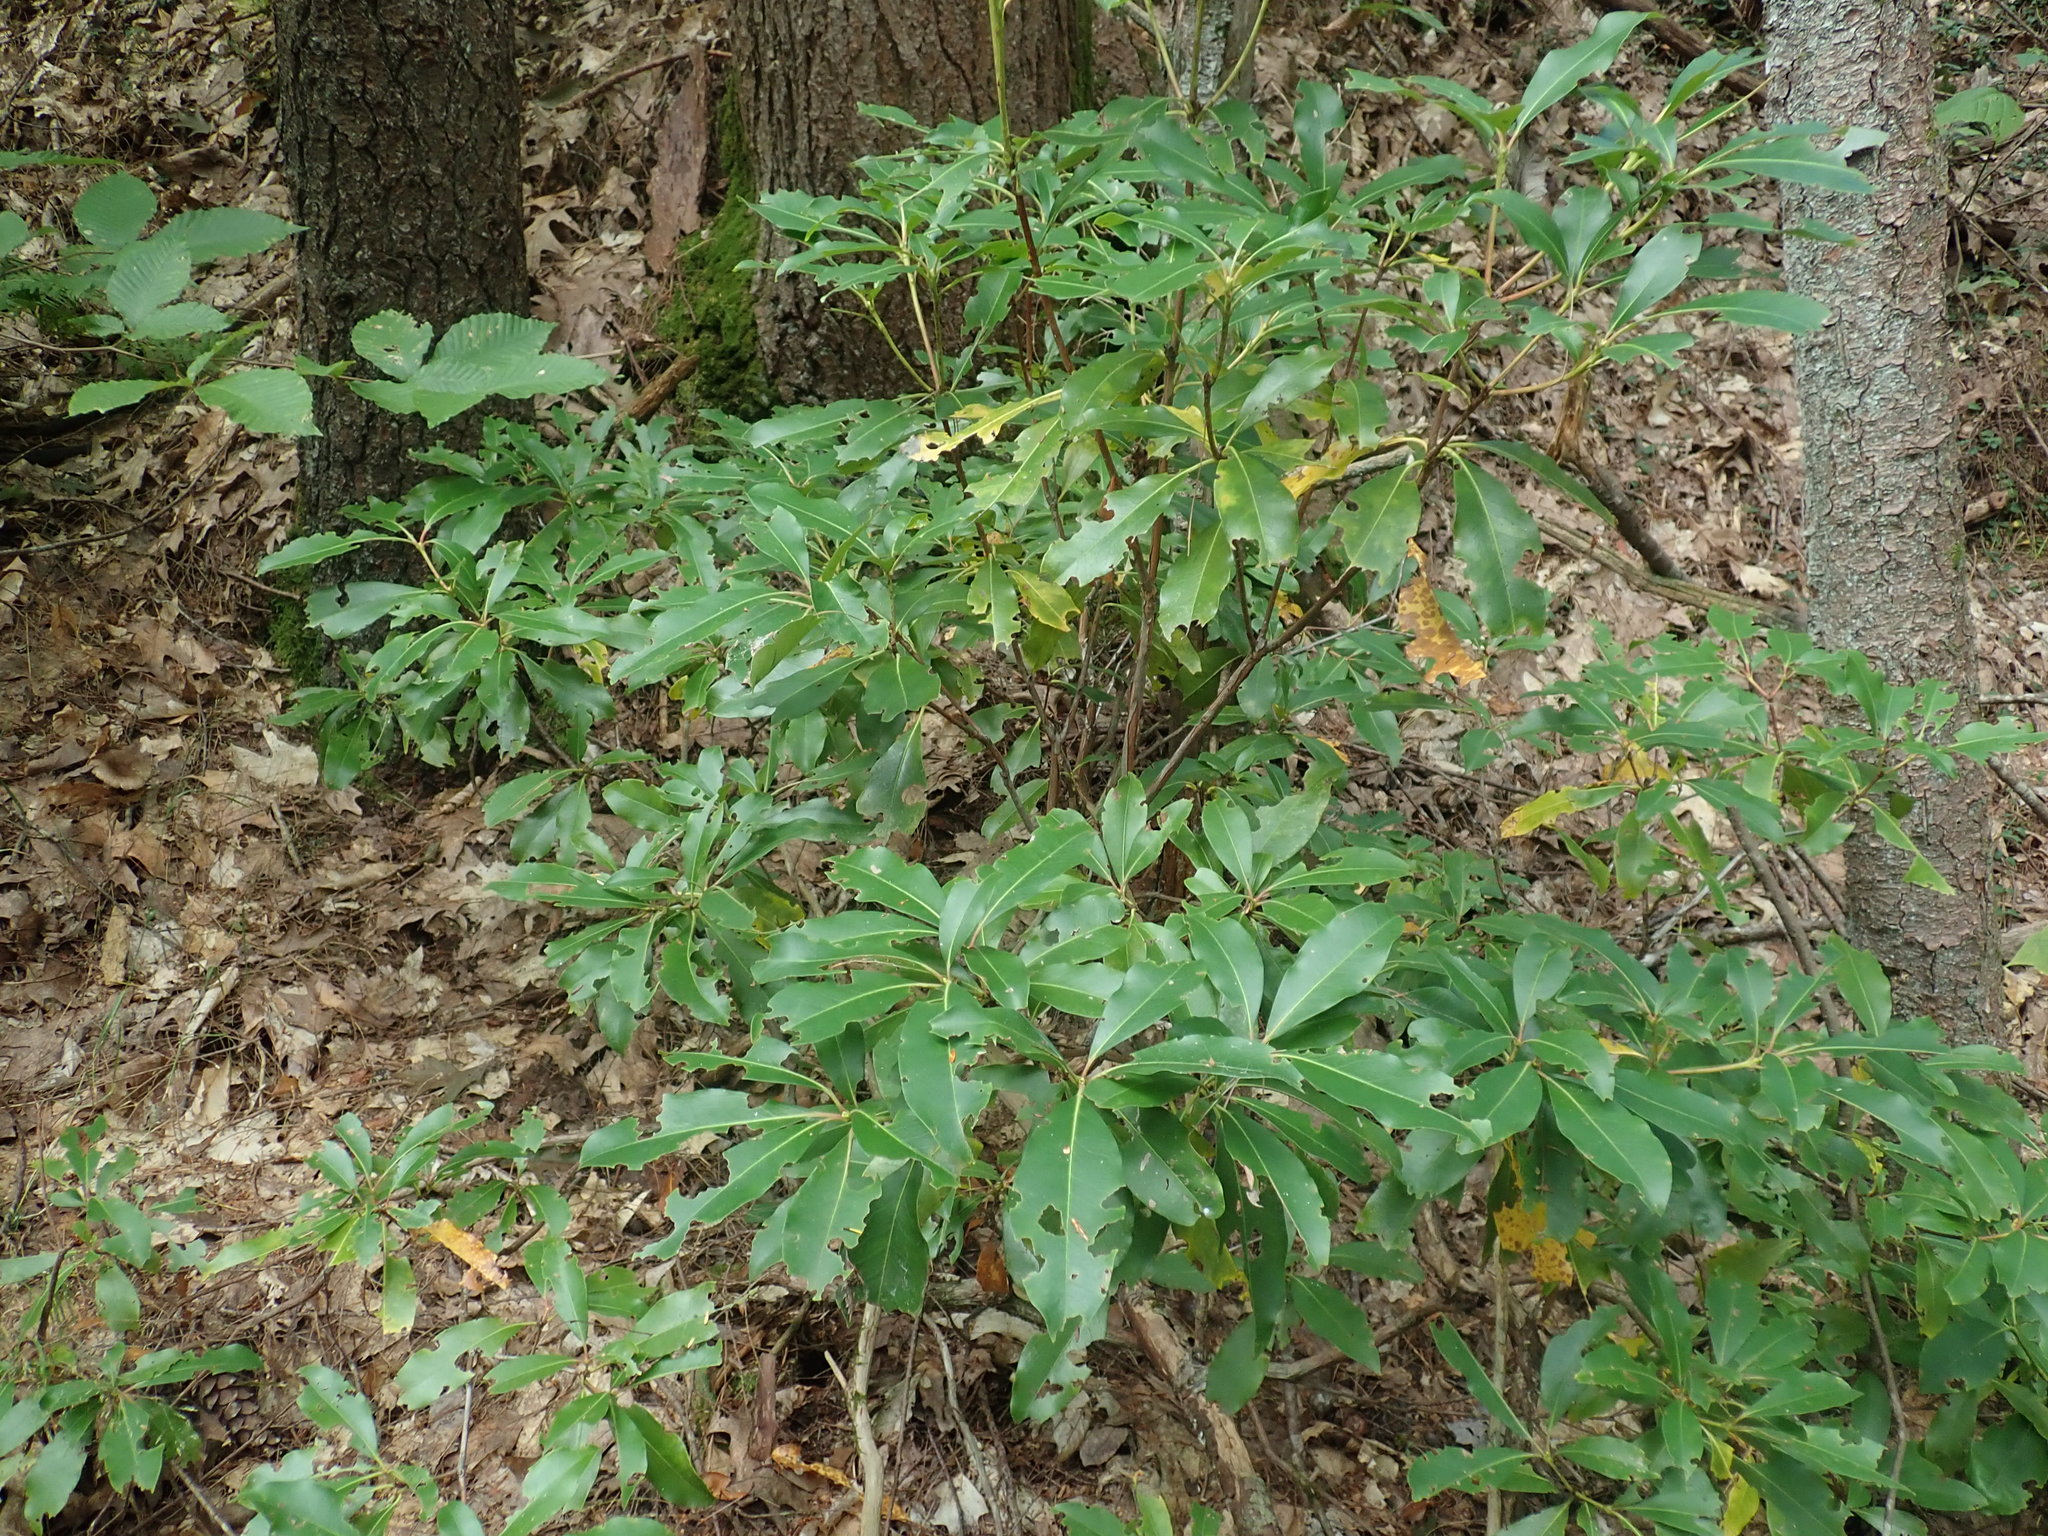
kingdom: Plantae
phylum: Tracheophyta
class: Magnoliopsida
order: Ericales
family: Ericaceae
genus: Kalmia
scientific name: Kalmia latifolia
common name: Mountain-laurel
